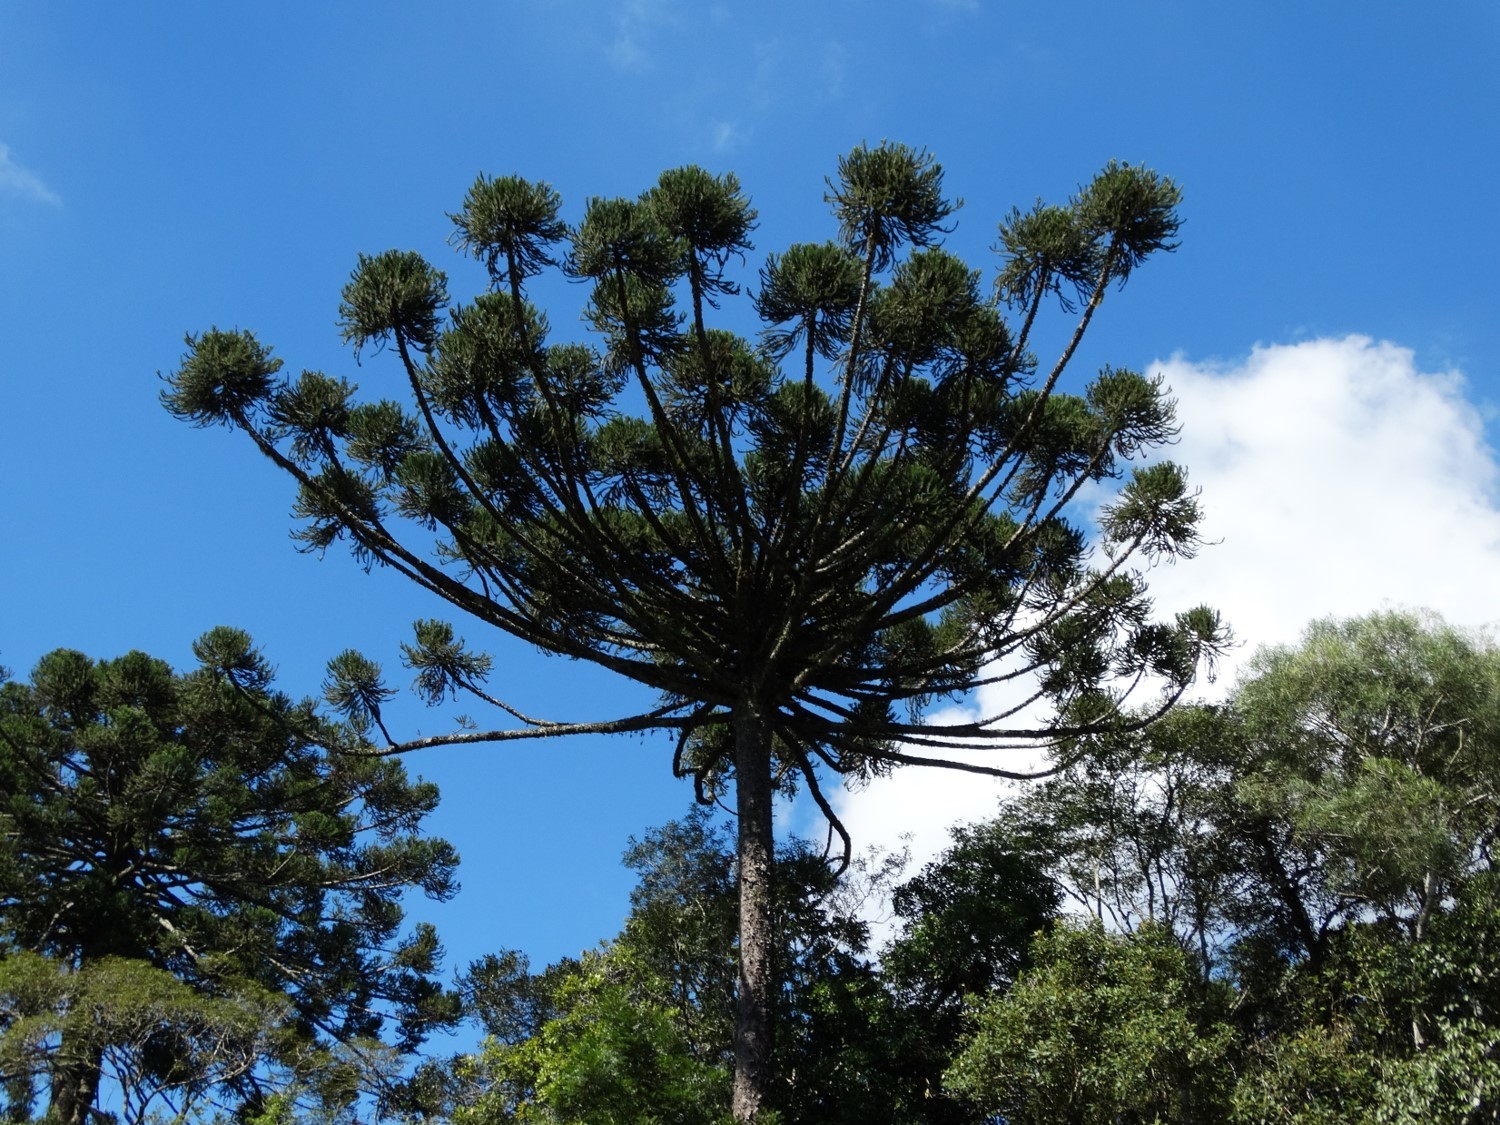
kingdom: Plantae
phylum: Tracheophyta
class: Pinopsida
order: Pinales
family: Araucariaceae
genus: Araucaria
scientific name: Araucaria angustifolia
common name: Candelabra tree
